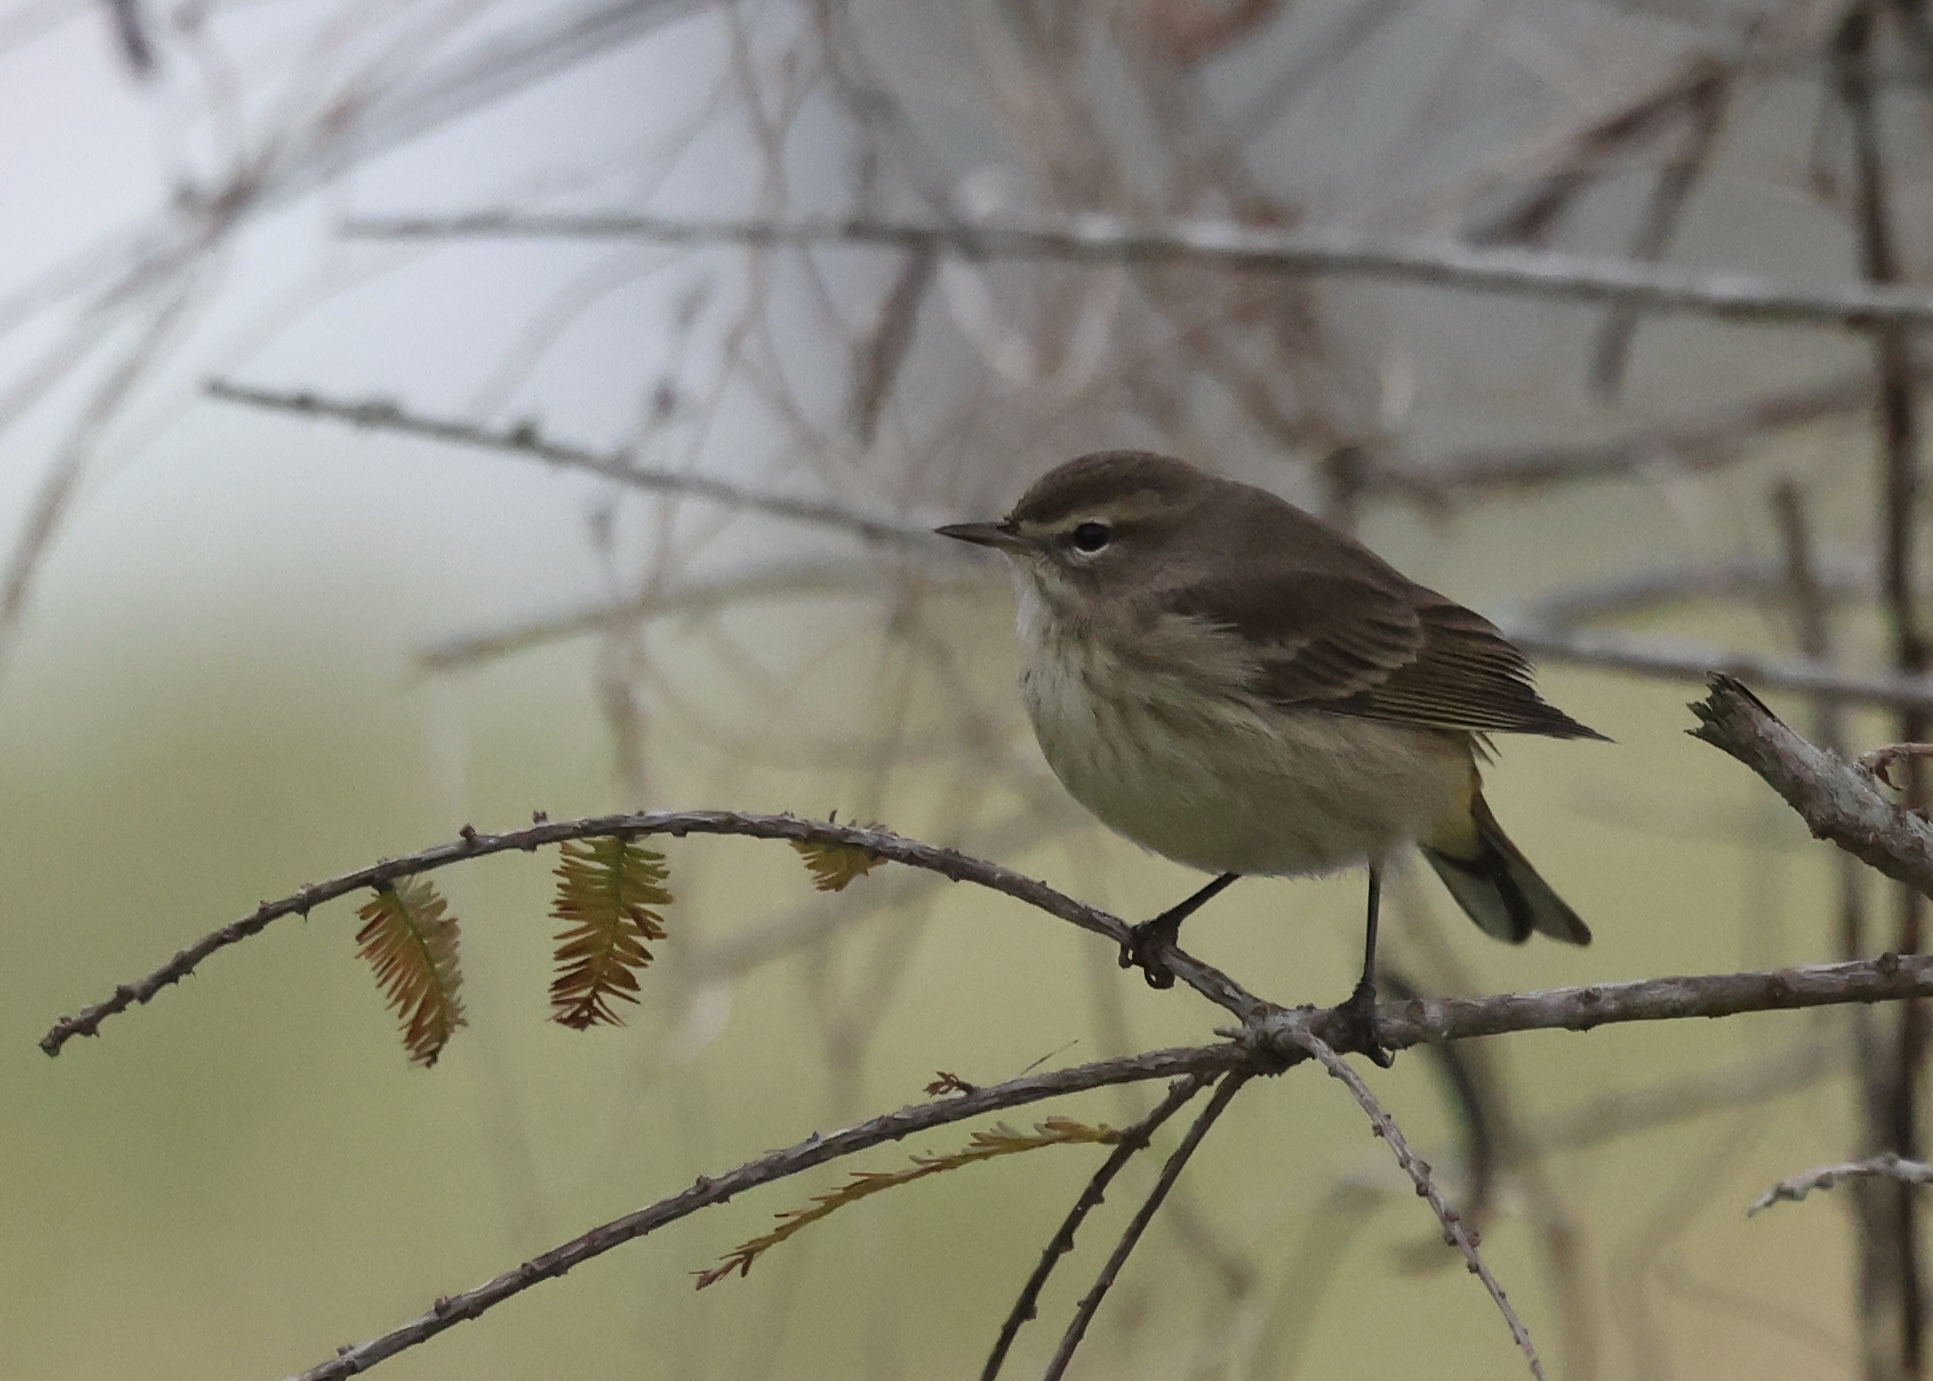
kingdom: Animalia
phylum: Chordata
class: Aves
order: Passeriformes
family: Parulidae
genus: Setophaga
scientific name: Setophaga palmarum
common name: Palm warbler
